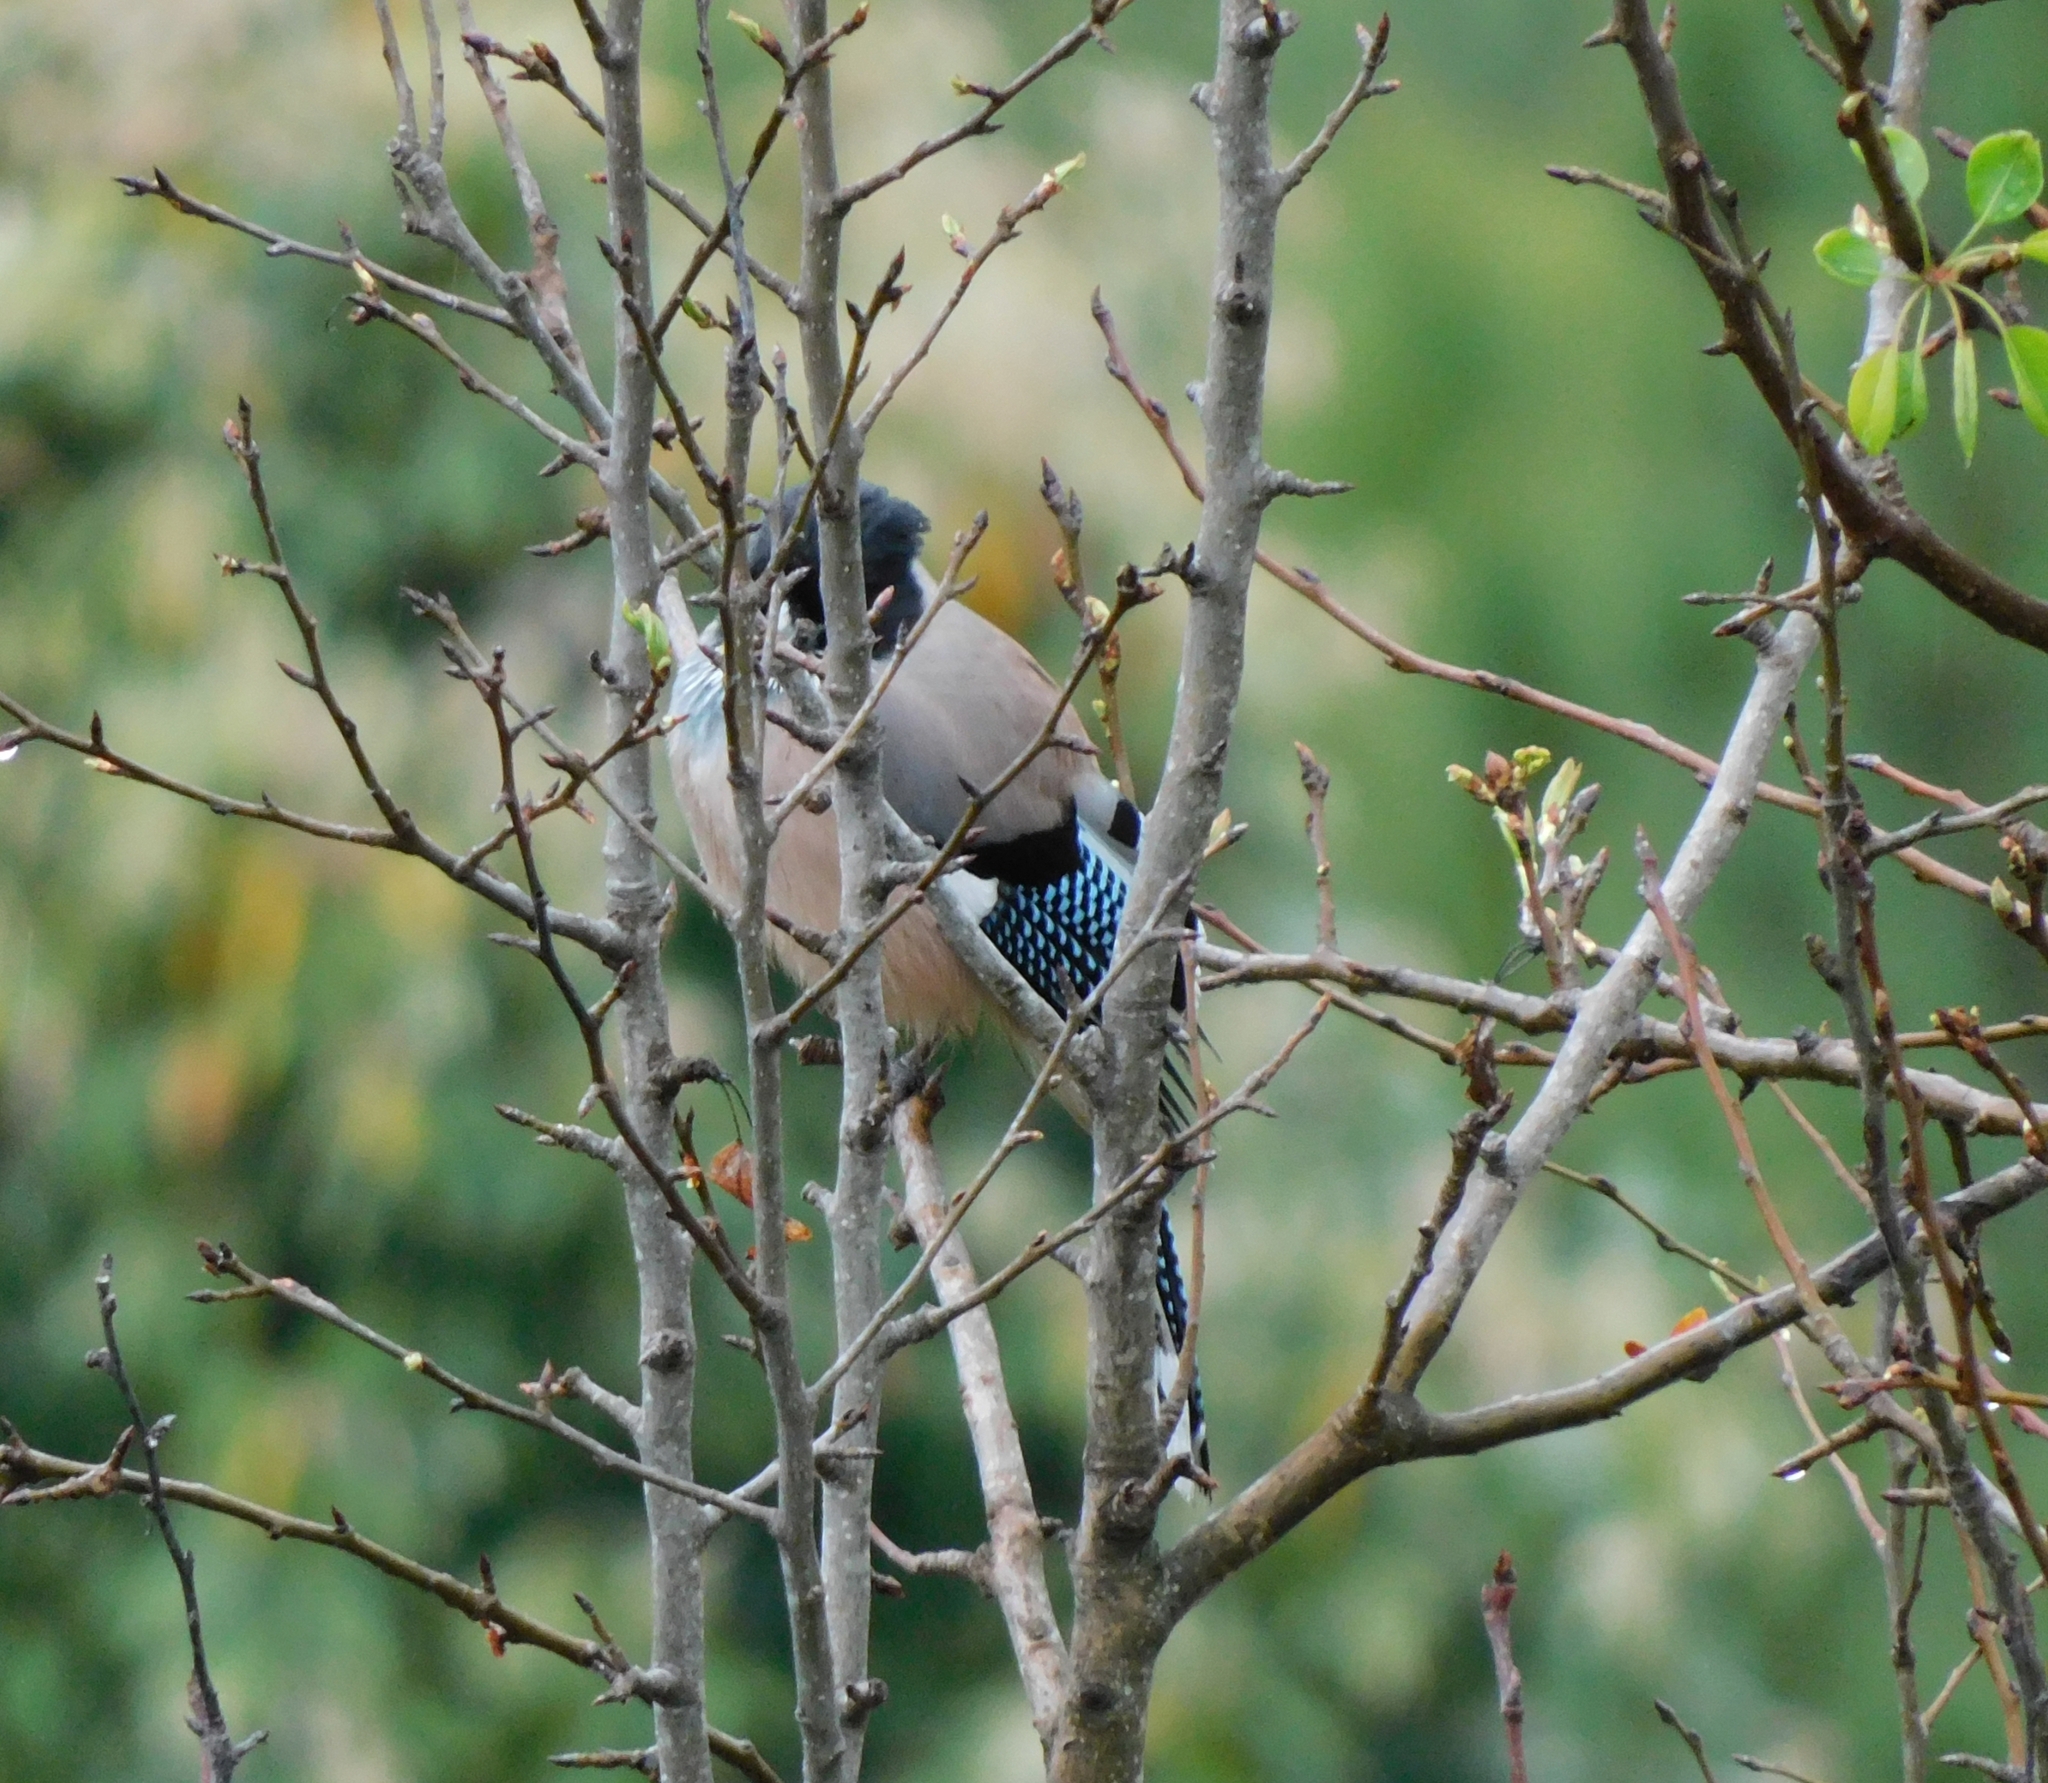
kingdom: Animalia
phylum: Chordata
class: Aves
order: Passeriformes
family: Corvidae
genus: Garrulus
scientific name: Garrulus lanceolatus
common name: Black-headed jay
